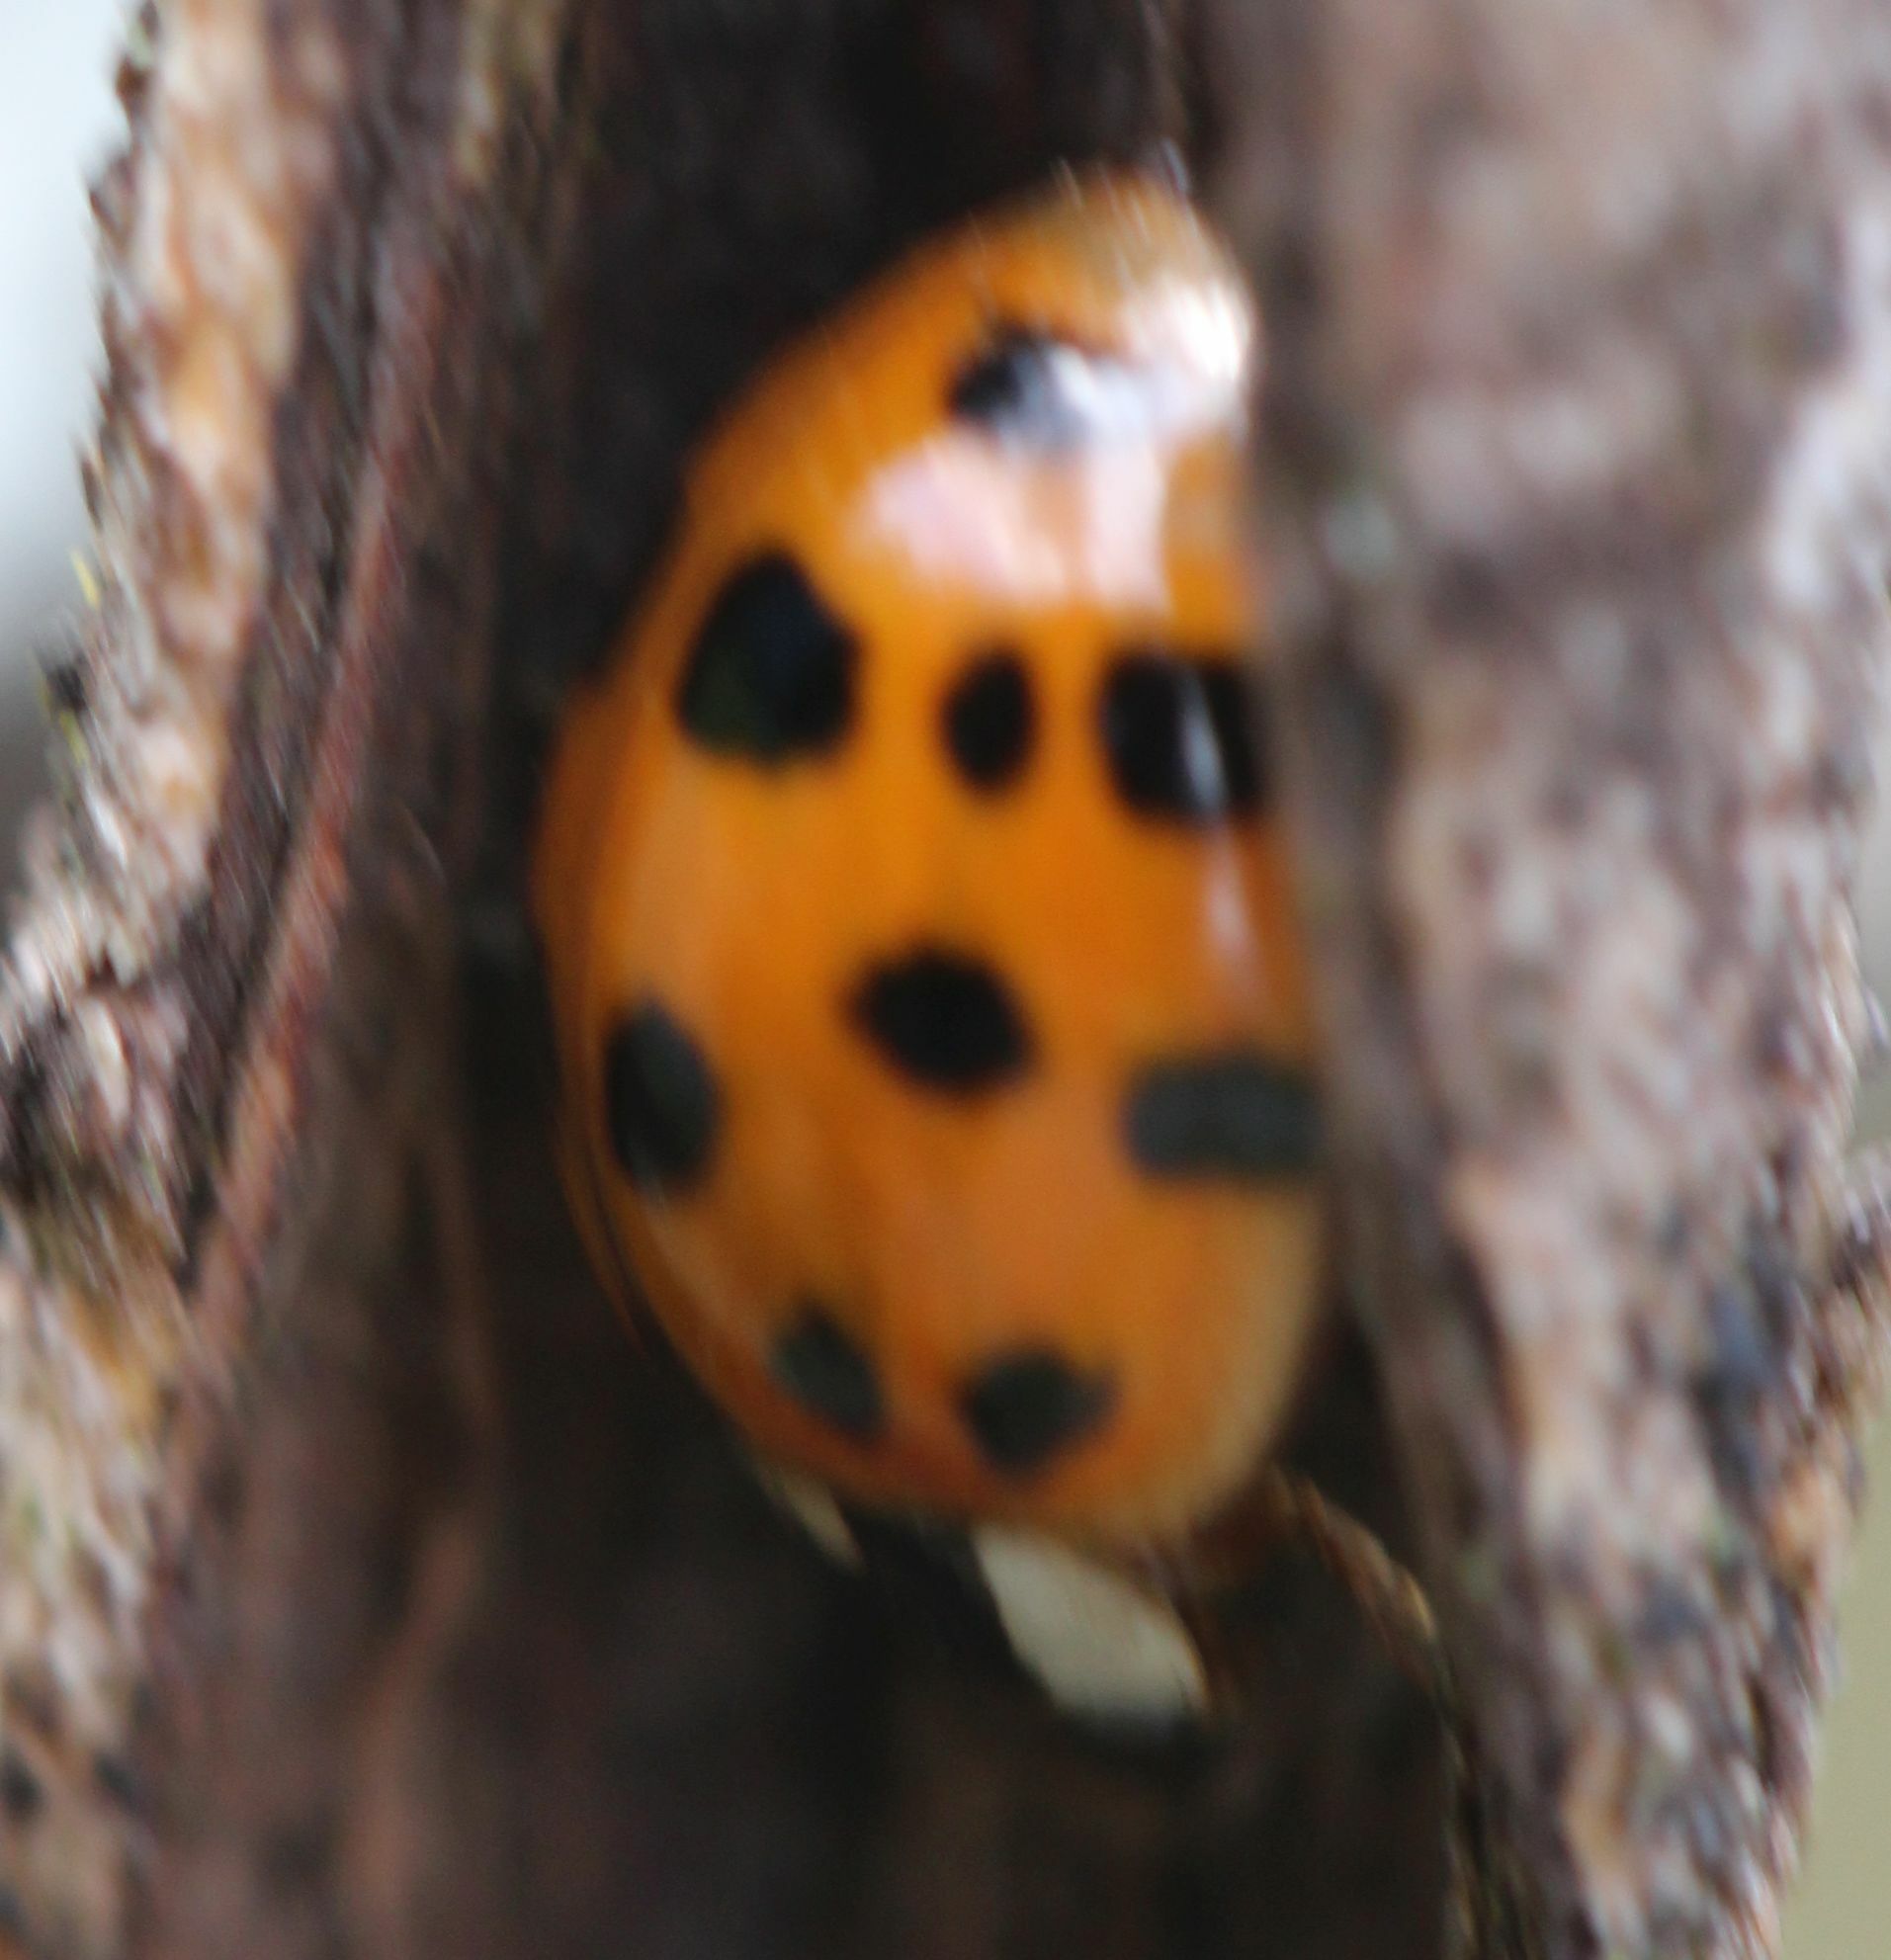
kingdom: Animalia
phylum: Arthropoda
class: Insecta
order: Coleoptera
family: Coccinellidae
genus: Harmonia
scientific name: Harmonia axyridis
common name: Harlequin ladybird
